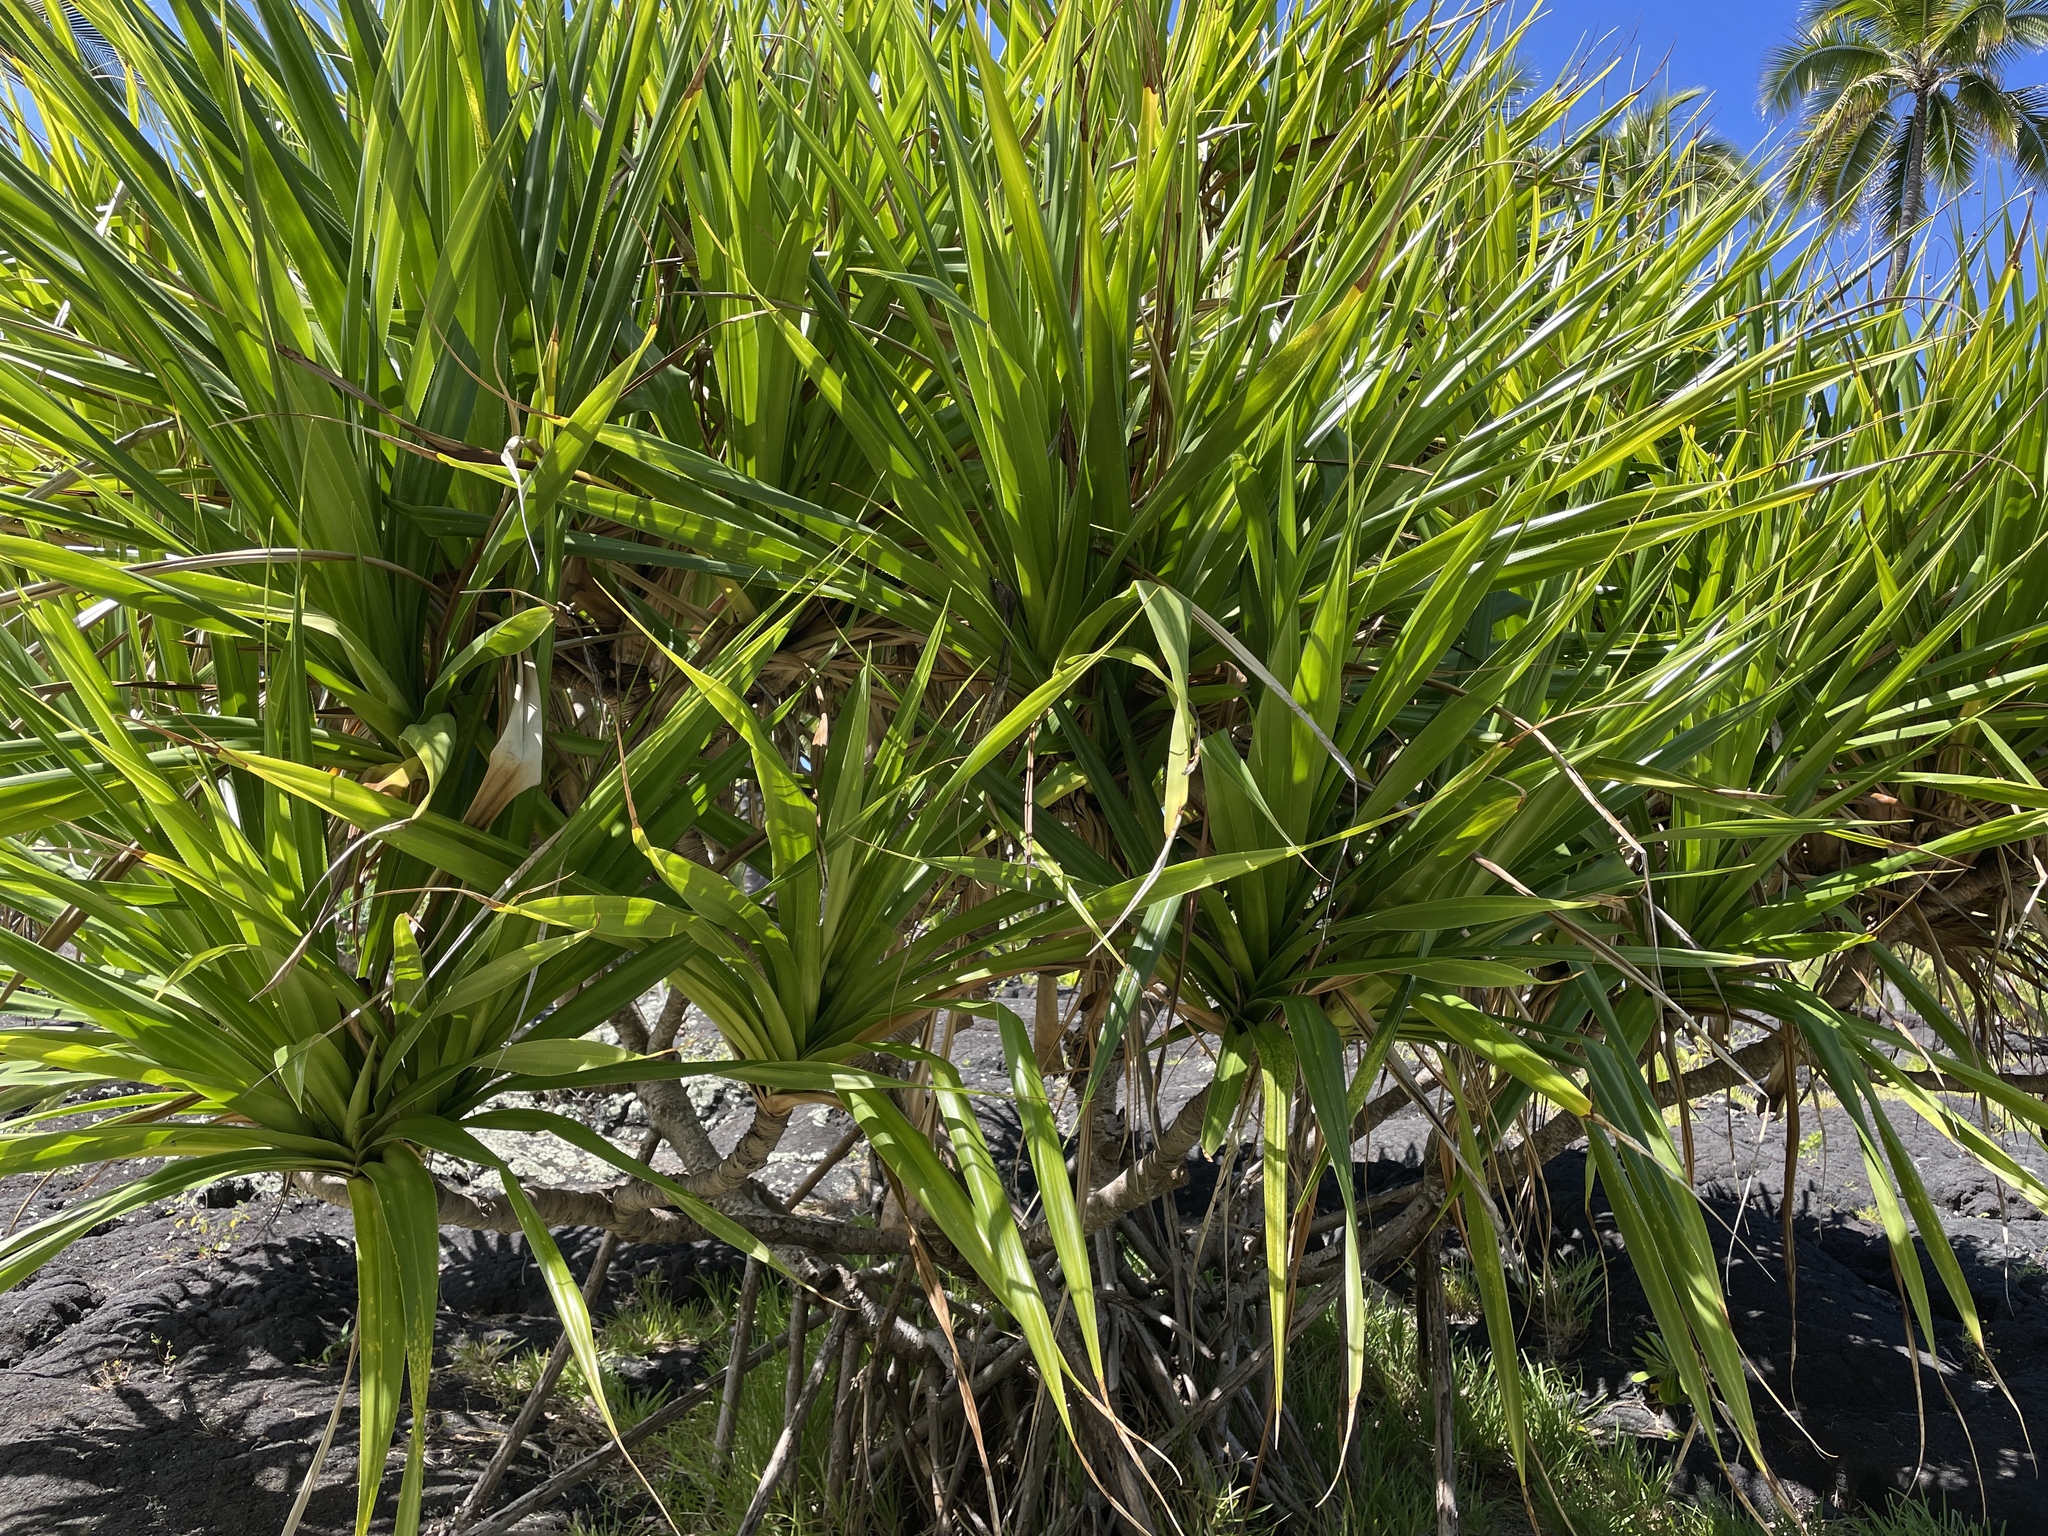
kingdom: Plantae
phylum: Tracheophyta
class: Liliopsida
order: Pandanales
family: Pandanaceae
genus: Pandanus
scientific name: Pandanus tectorius
